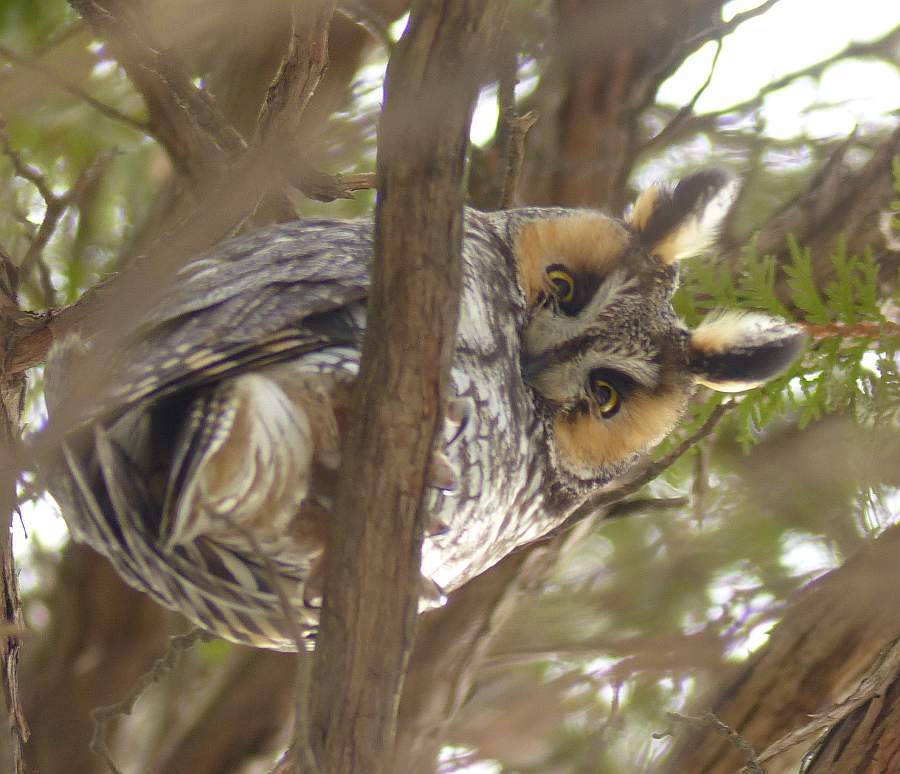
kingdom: Animalia
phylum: Chordata
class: Aves
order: Strigiformes
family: Strigidae
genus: Asio
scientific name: Asio otus
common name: Long-eared owl
